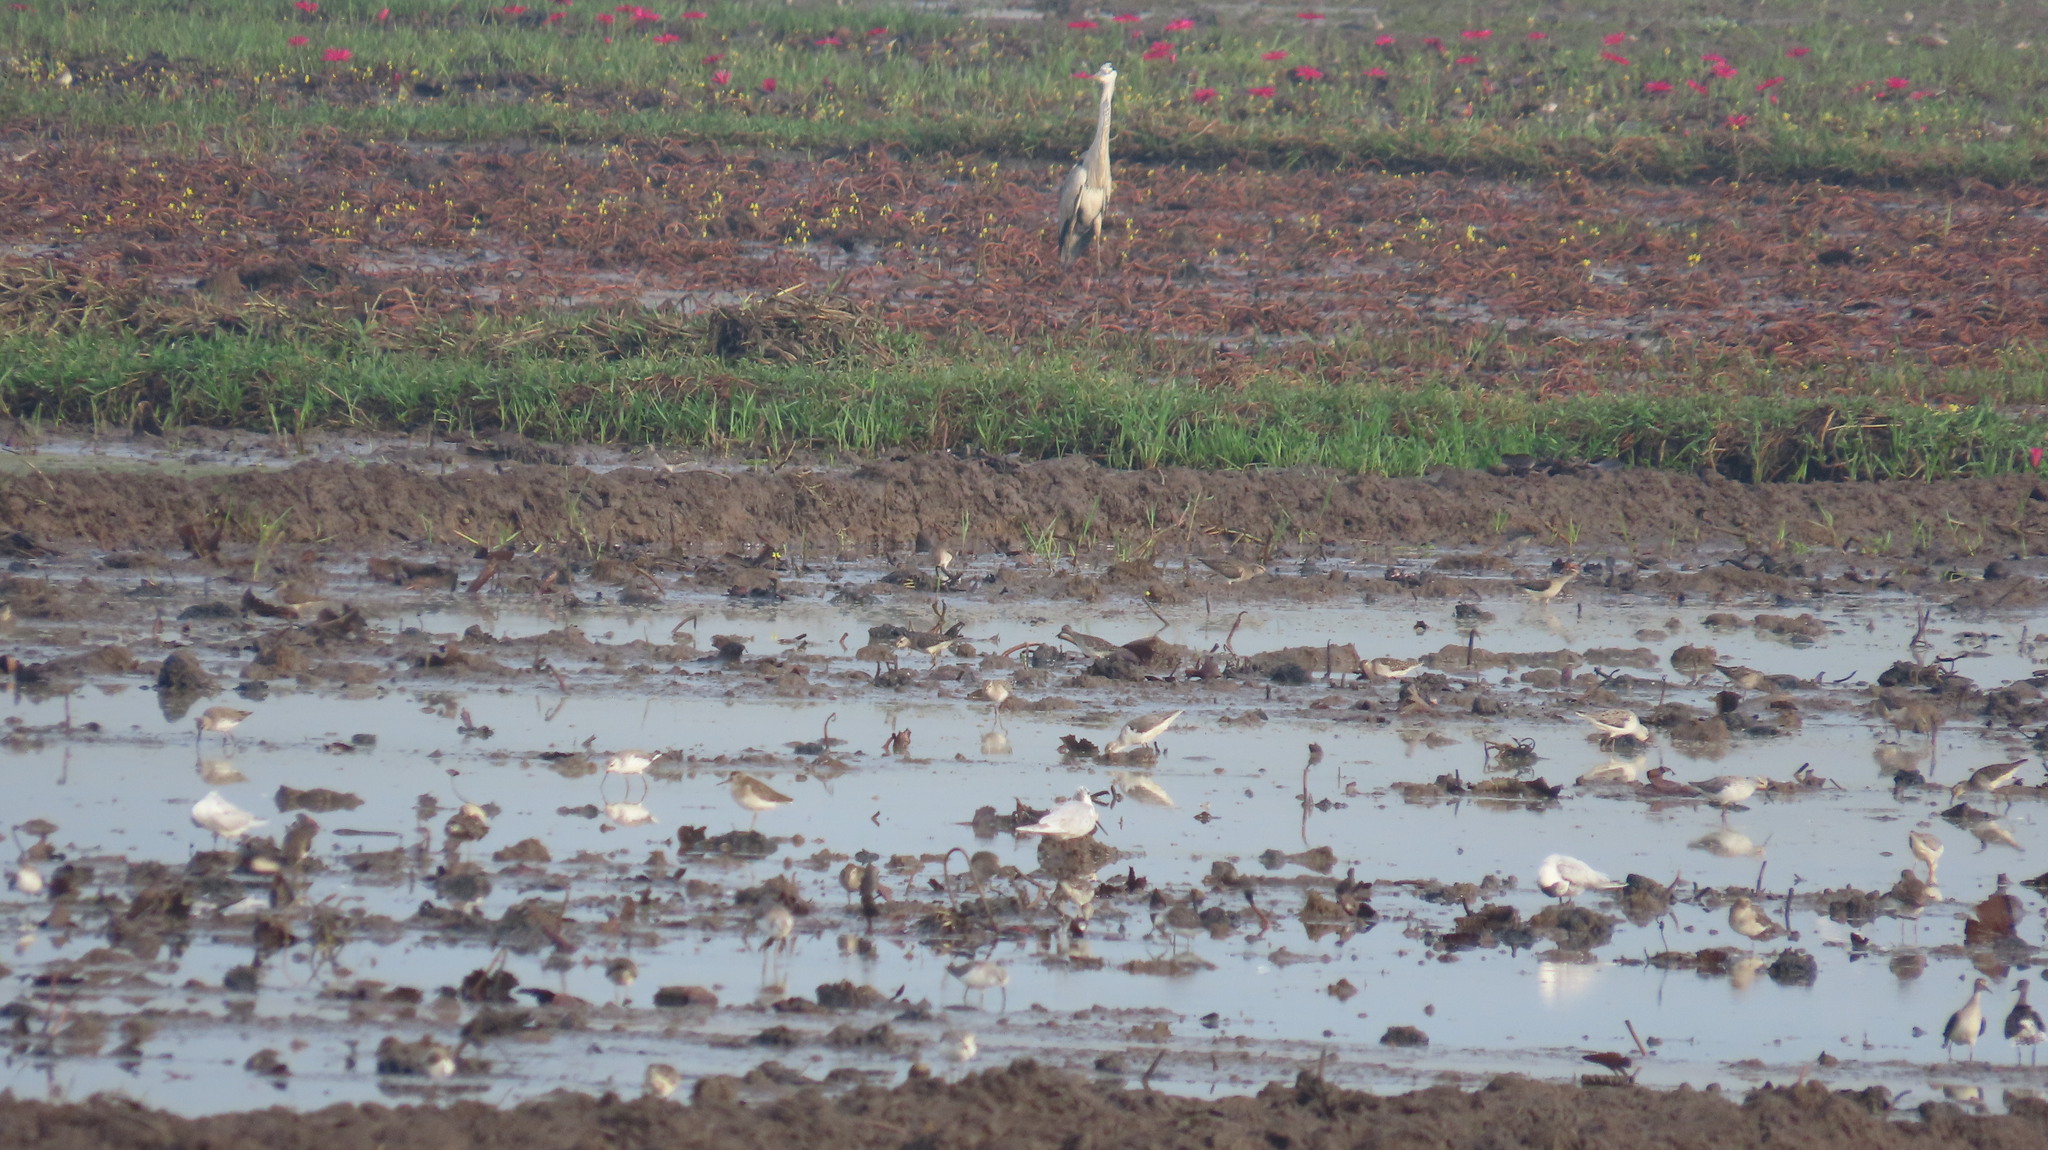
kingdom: Animalia
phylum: Chordata
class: Aves
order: Pelecaniformes
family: Ardeidae
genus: Ardea
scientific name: Ardea cinerea
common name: Grey heron
